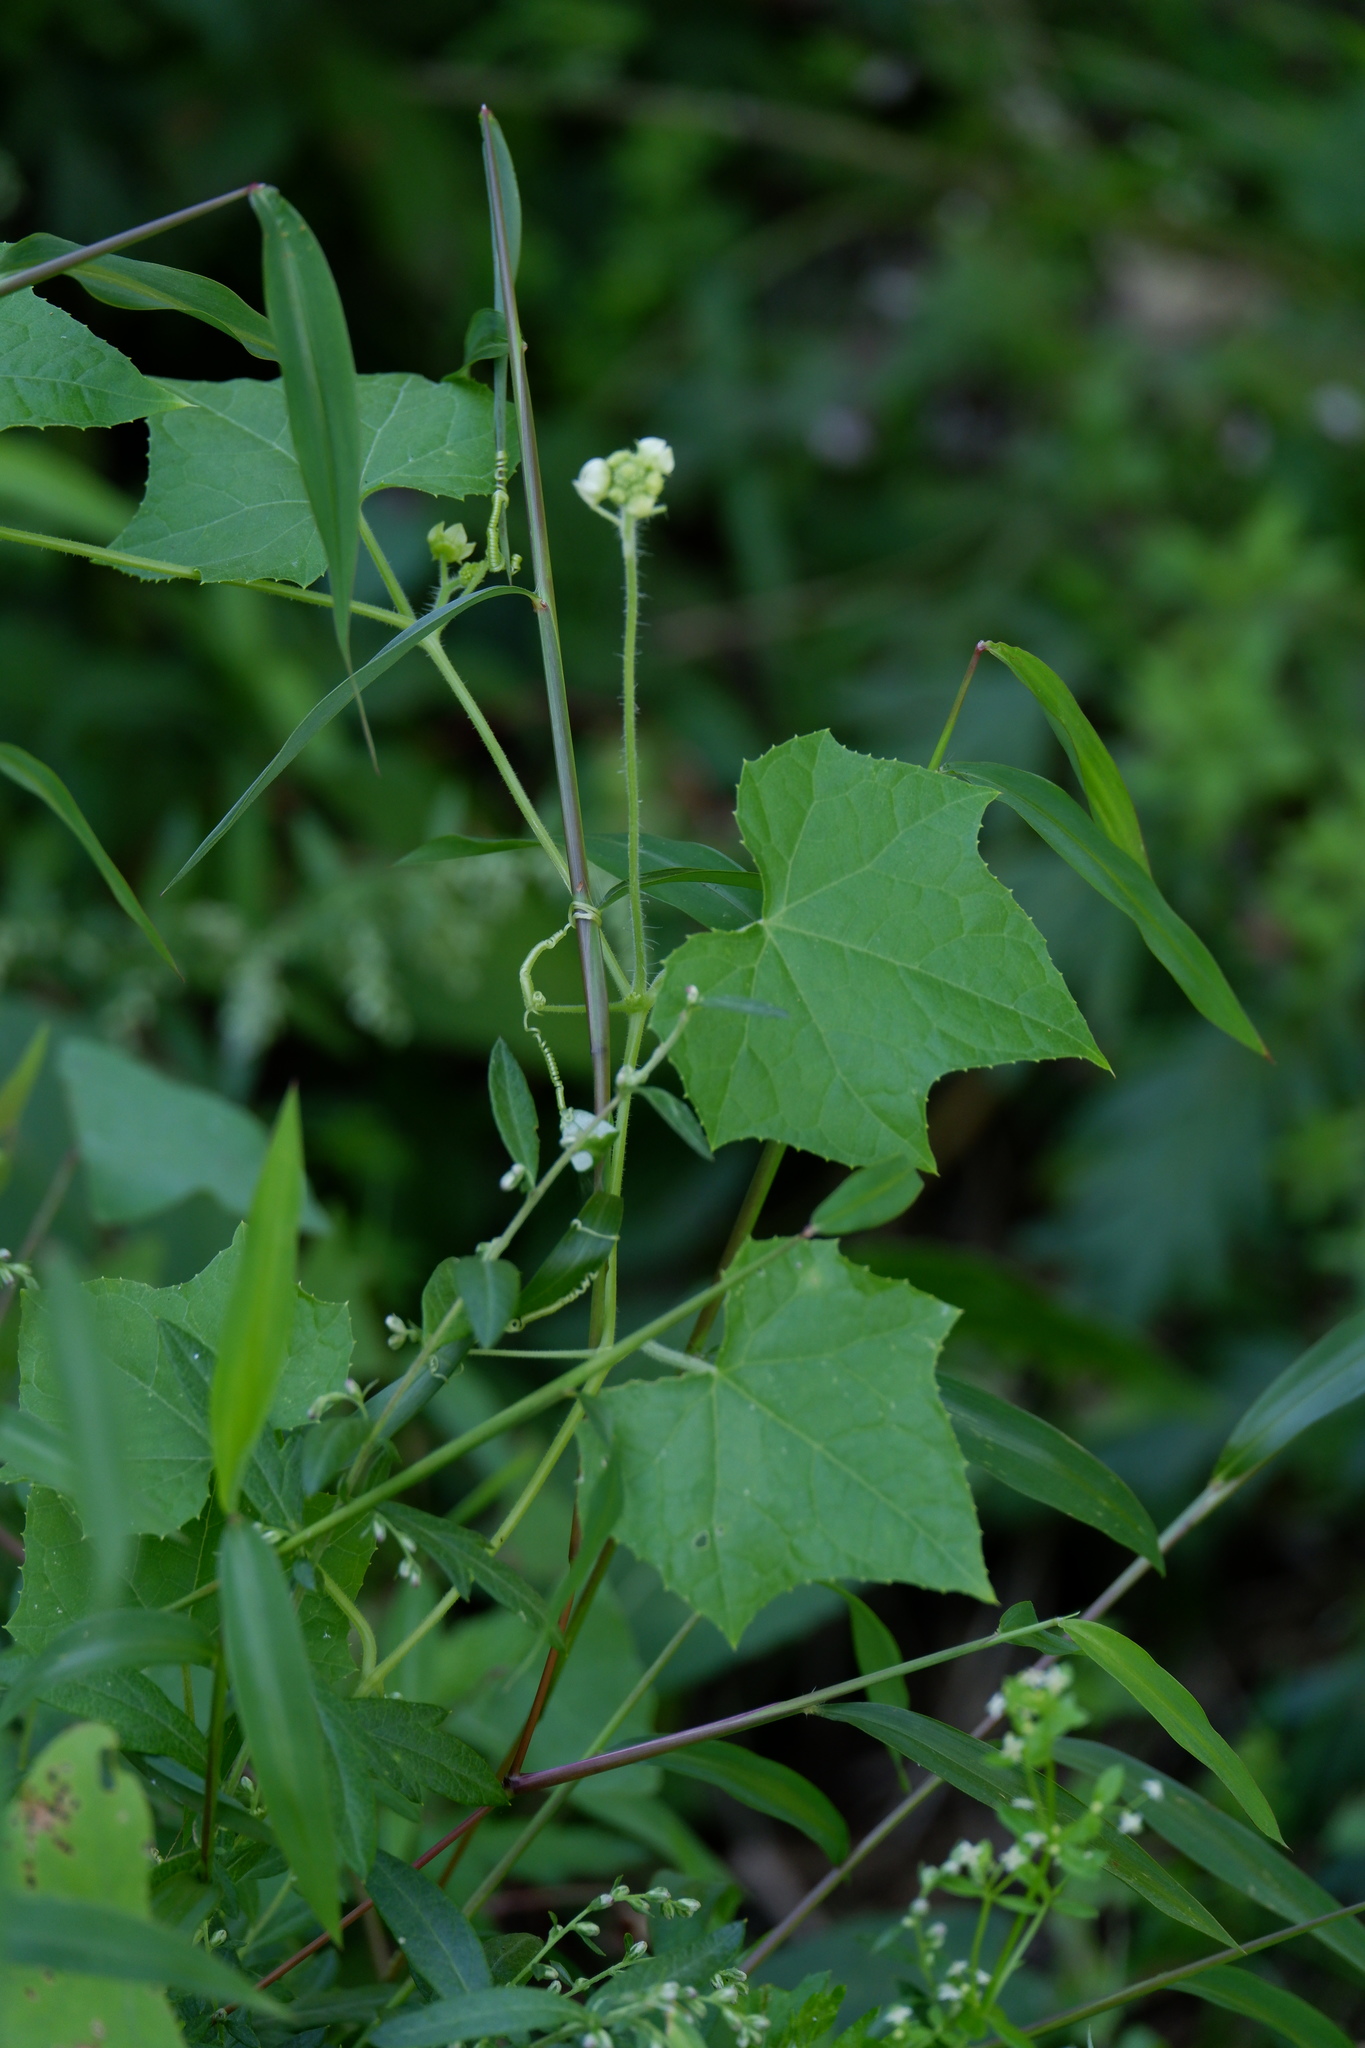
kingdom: Plantae
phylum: Tracheophyta
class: Magnoliopsida
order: Cucurbitales
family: Cucurbitaceae
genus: Sicyos
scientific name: Sicyos angulatus
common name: Angled burr cucumber
